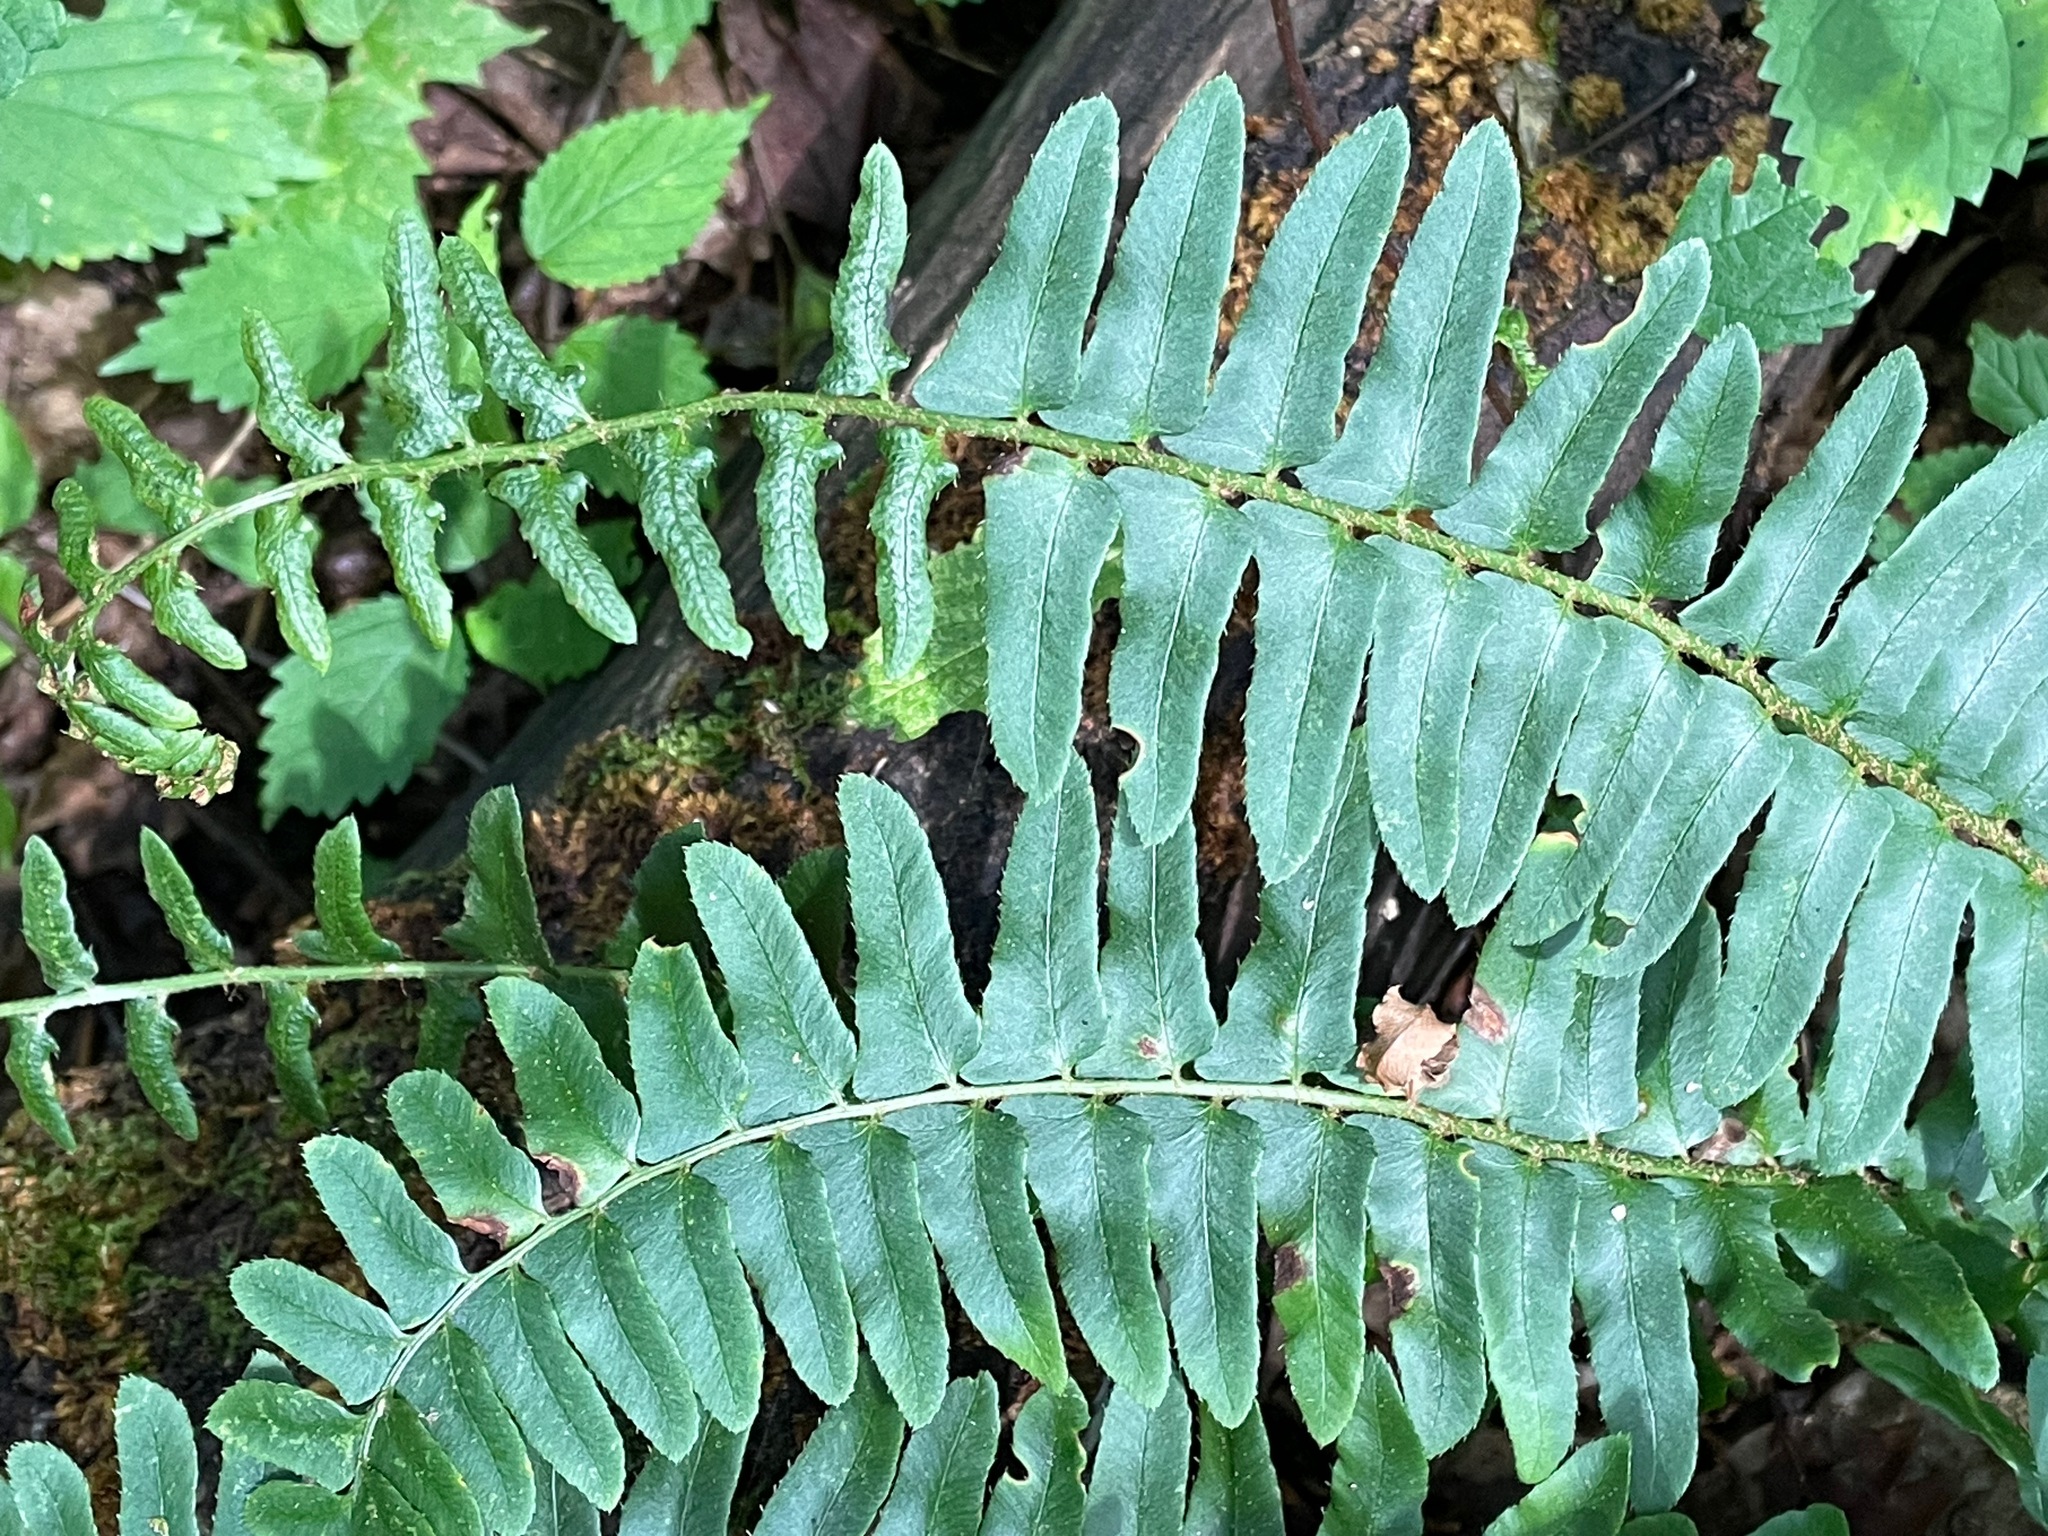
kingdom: Plantae
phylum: Tracheophyta
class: Polypodiopsida
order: Polypodiales
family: Dryopteridaceae
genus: Polystichum
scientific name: Polystichum acrostichoides
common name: Christmas fern
